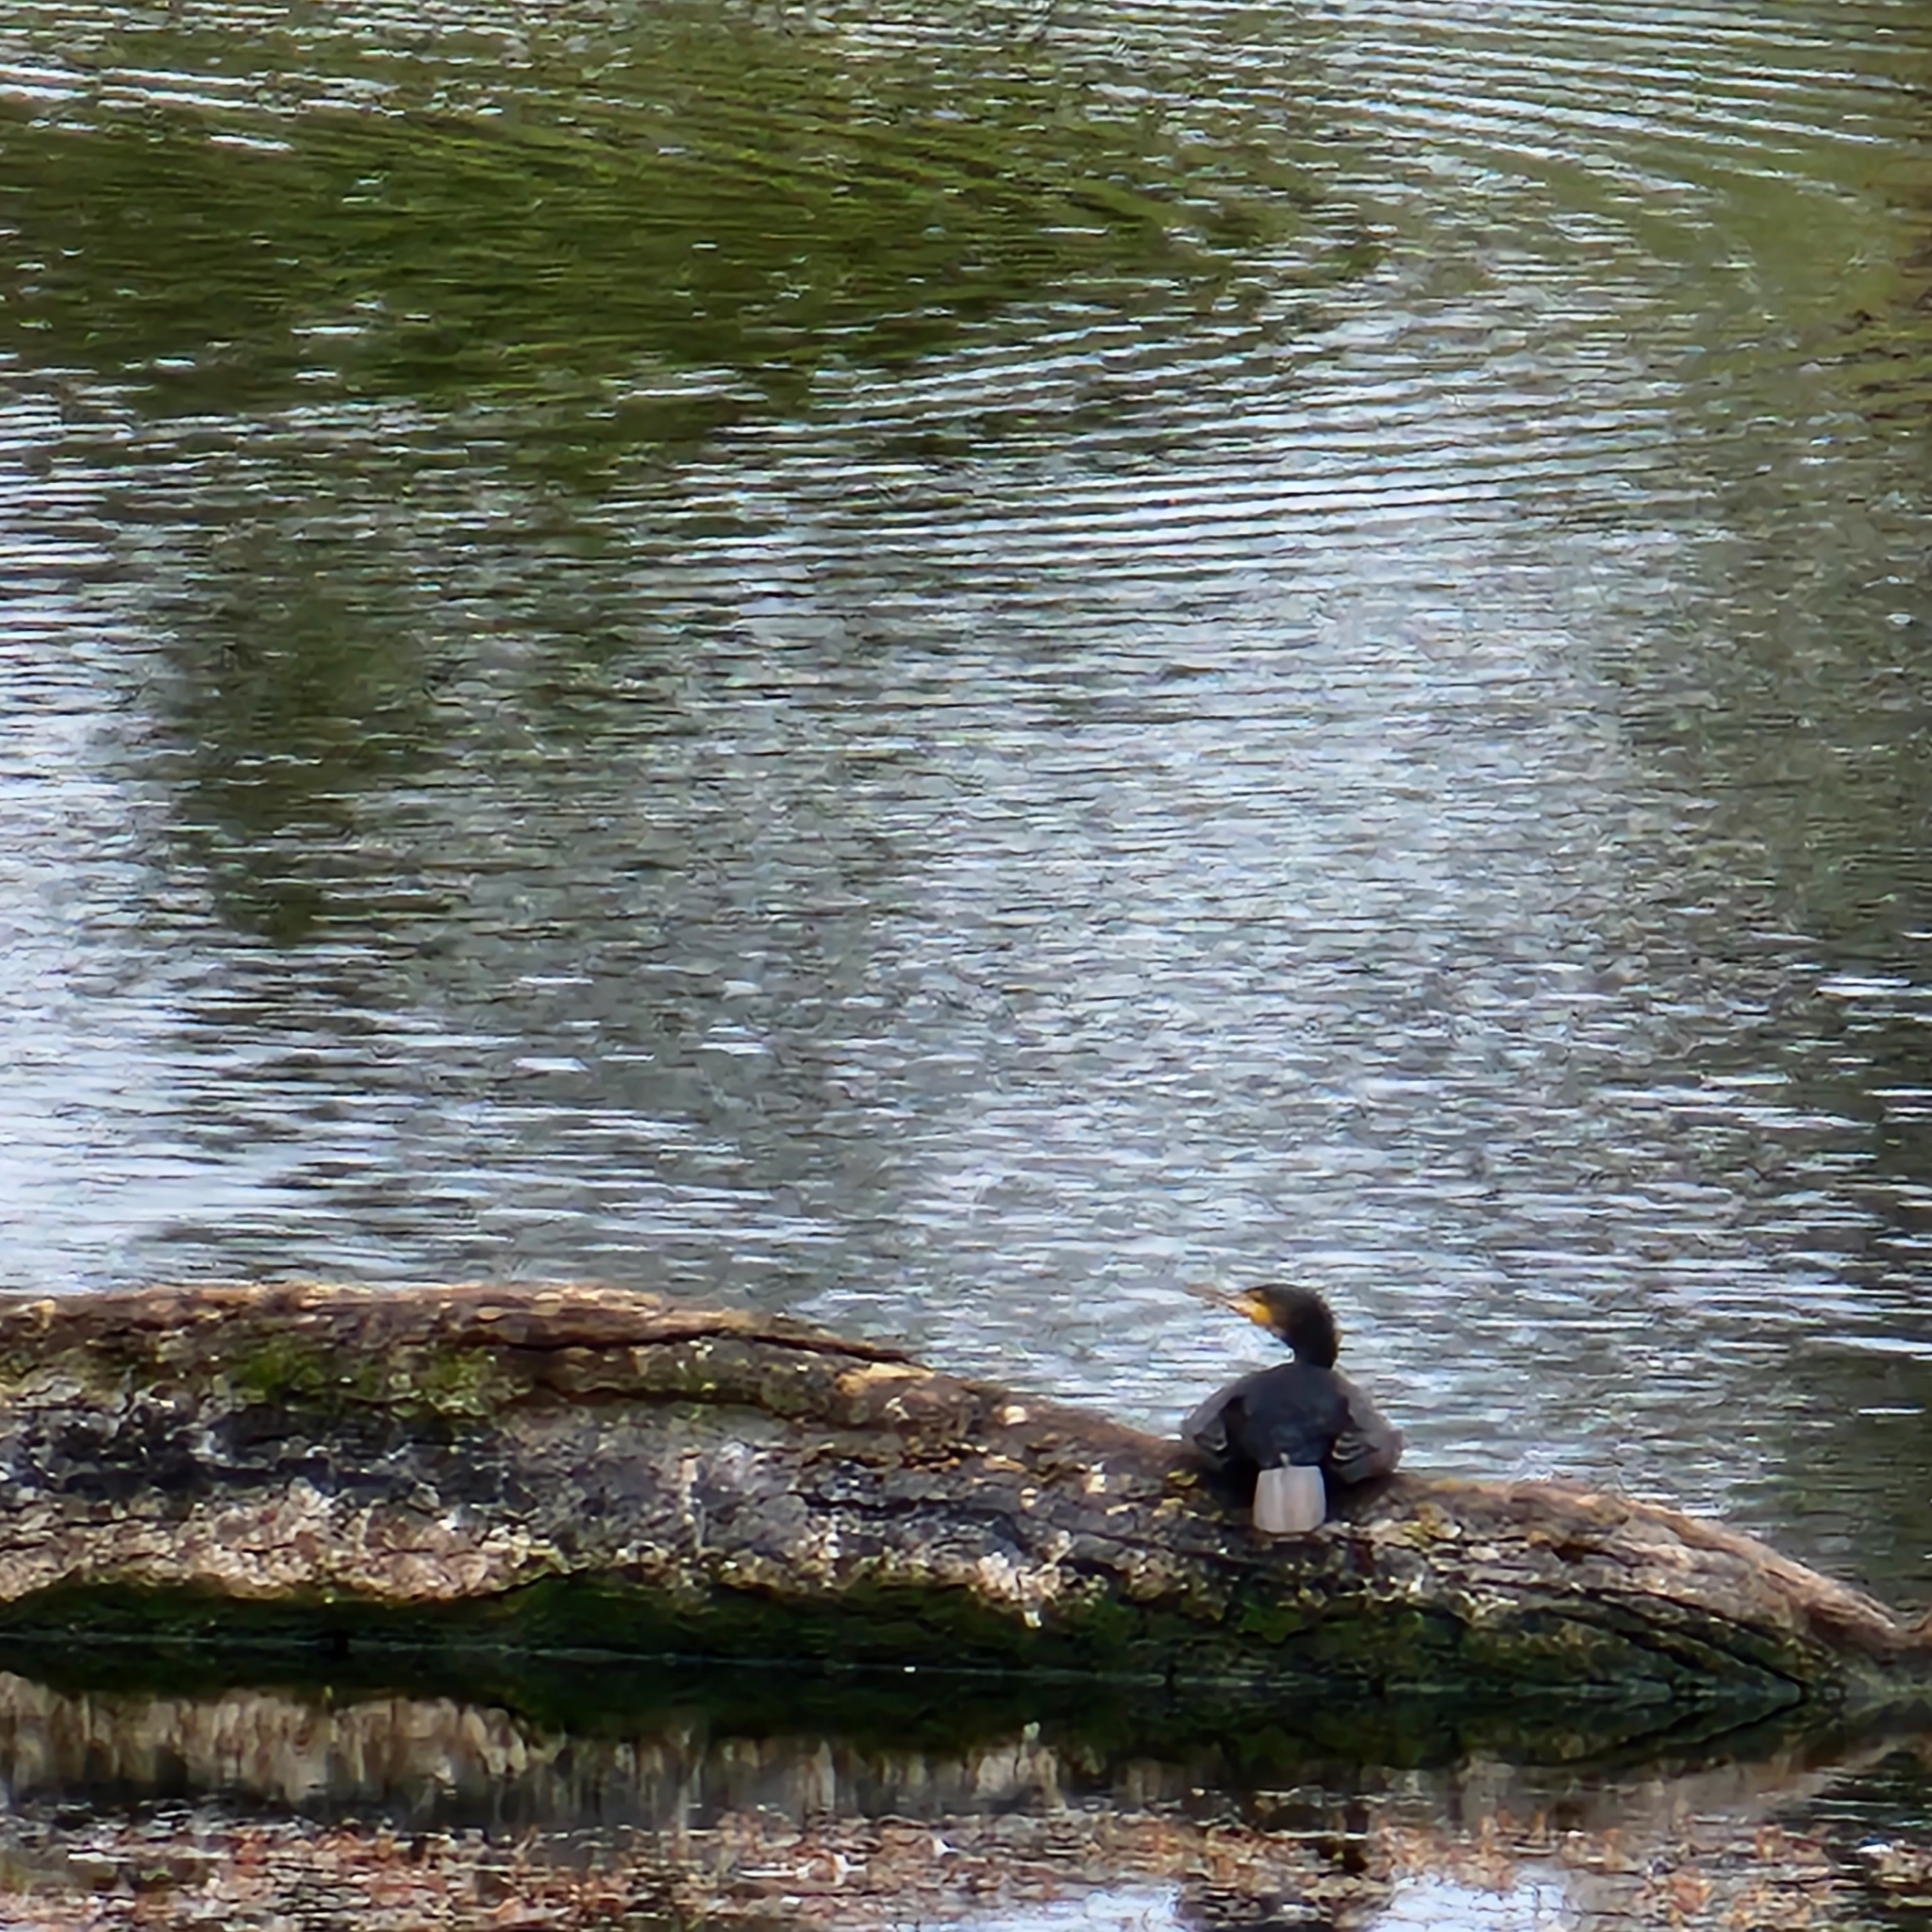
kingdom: Animalia
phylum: Chordata
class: Aves
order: Suliformes
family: Phalacrocoracidae
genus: Phalacrocorax
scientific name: Phalacrocorax carbo
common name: Great cormorant
